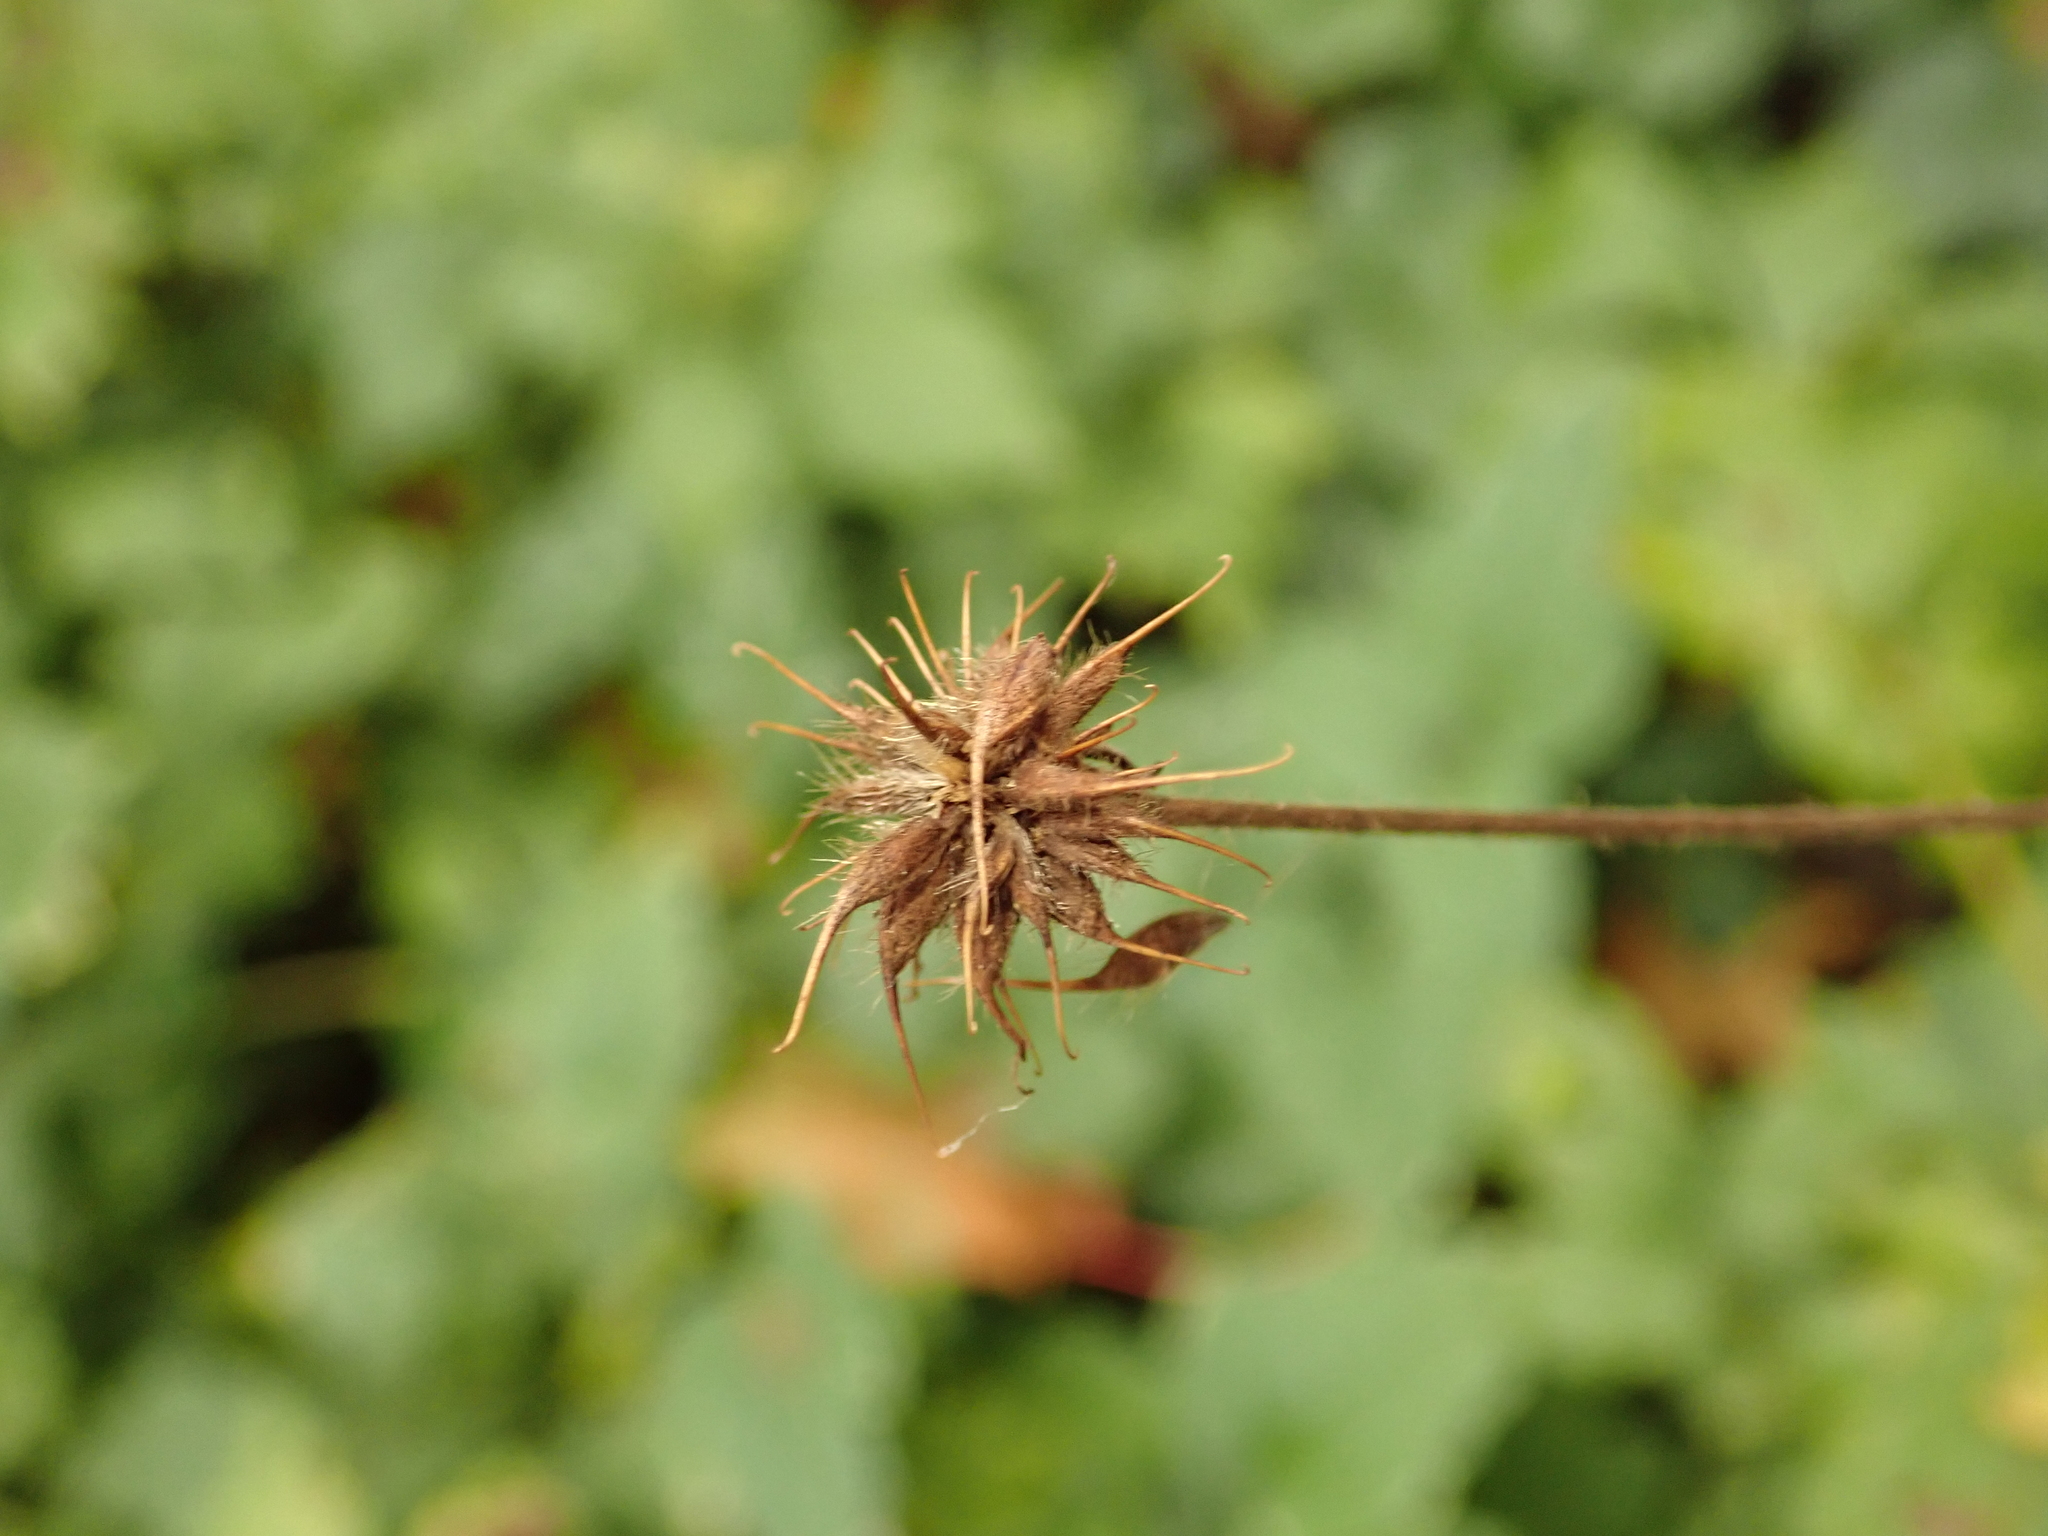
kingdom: Plantae
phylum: Tracheophyta
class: Magnoliopsida
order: Rosales
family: Rosaceae
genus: Geum
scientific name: Geum urbanum
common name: Wood avens
